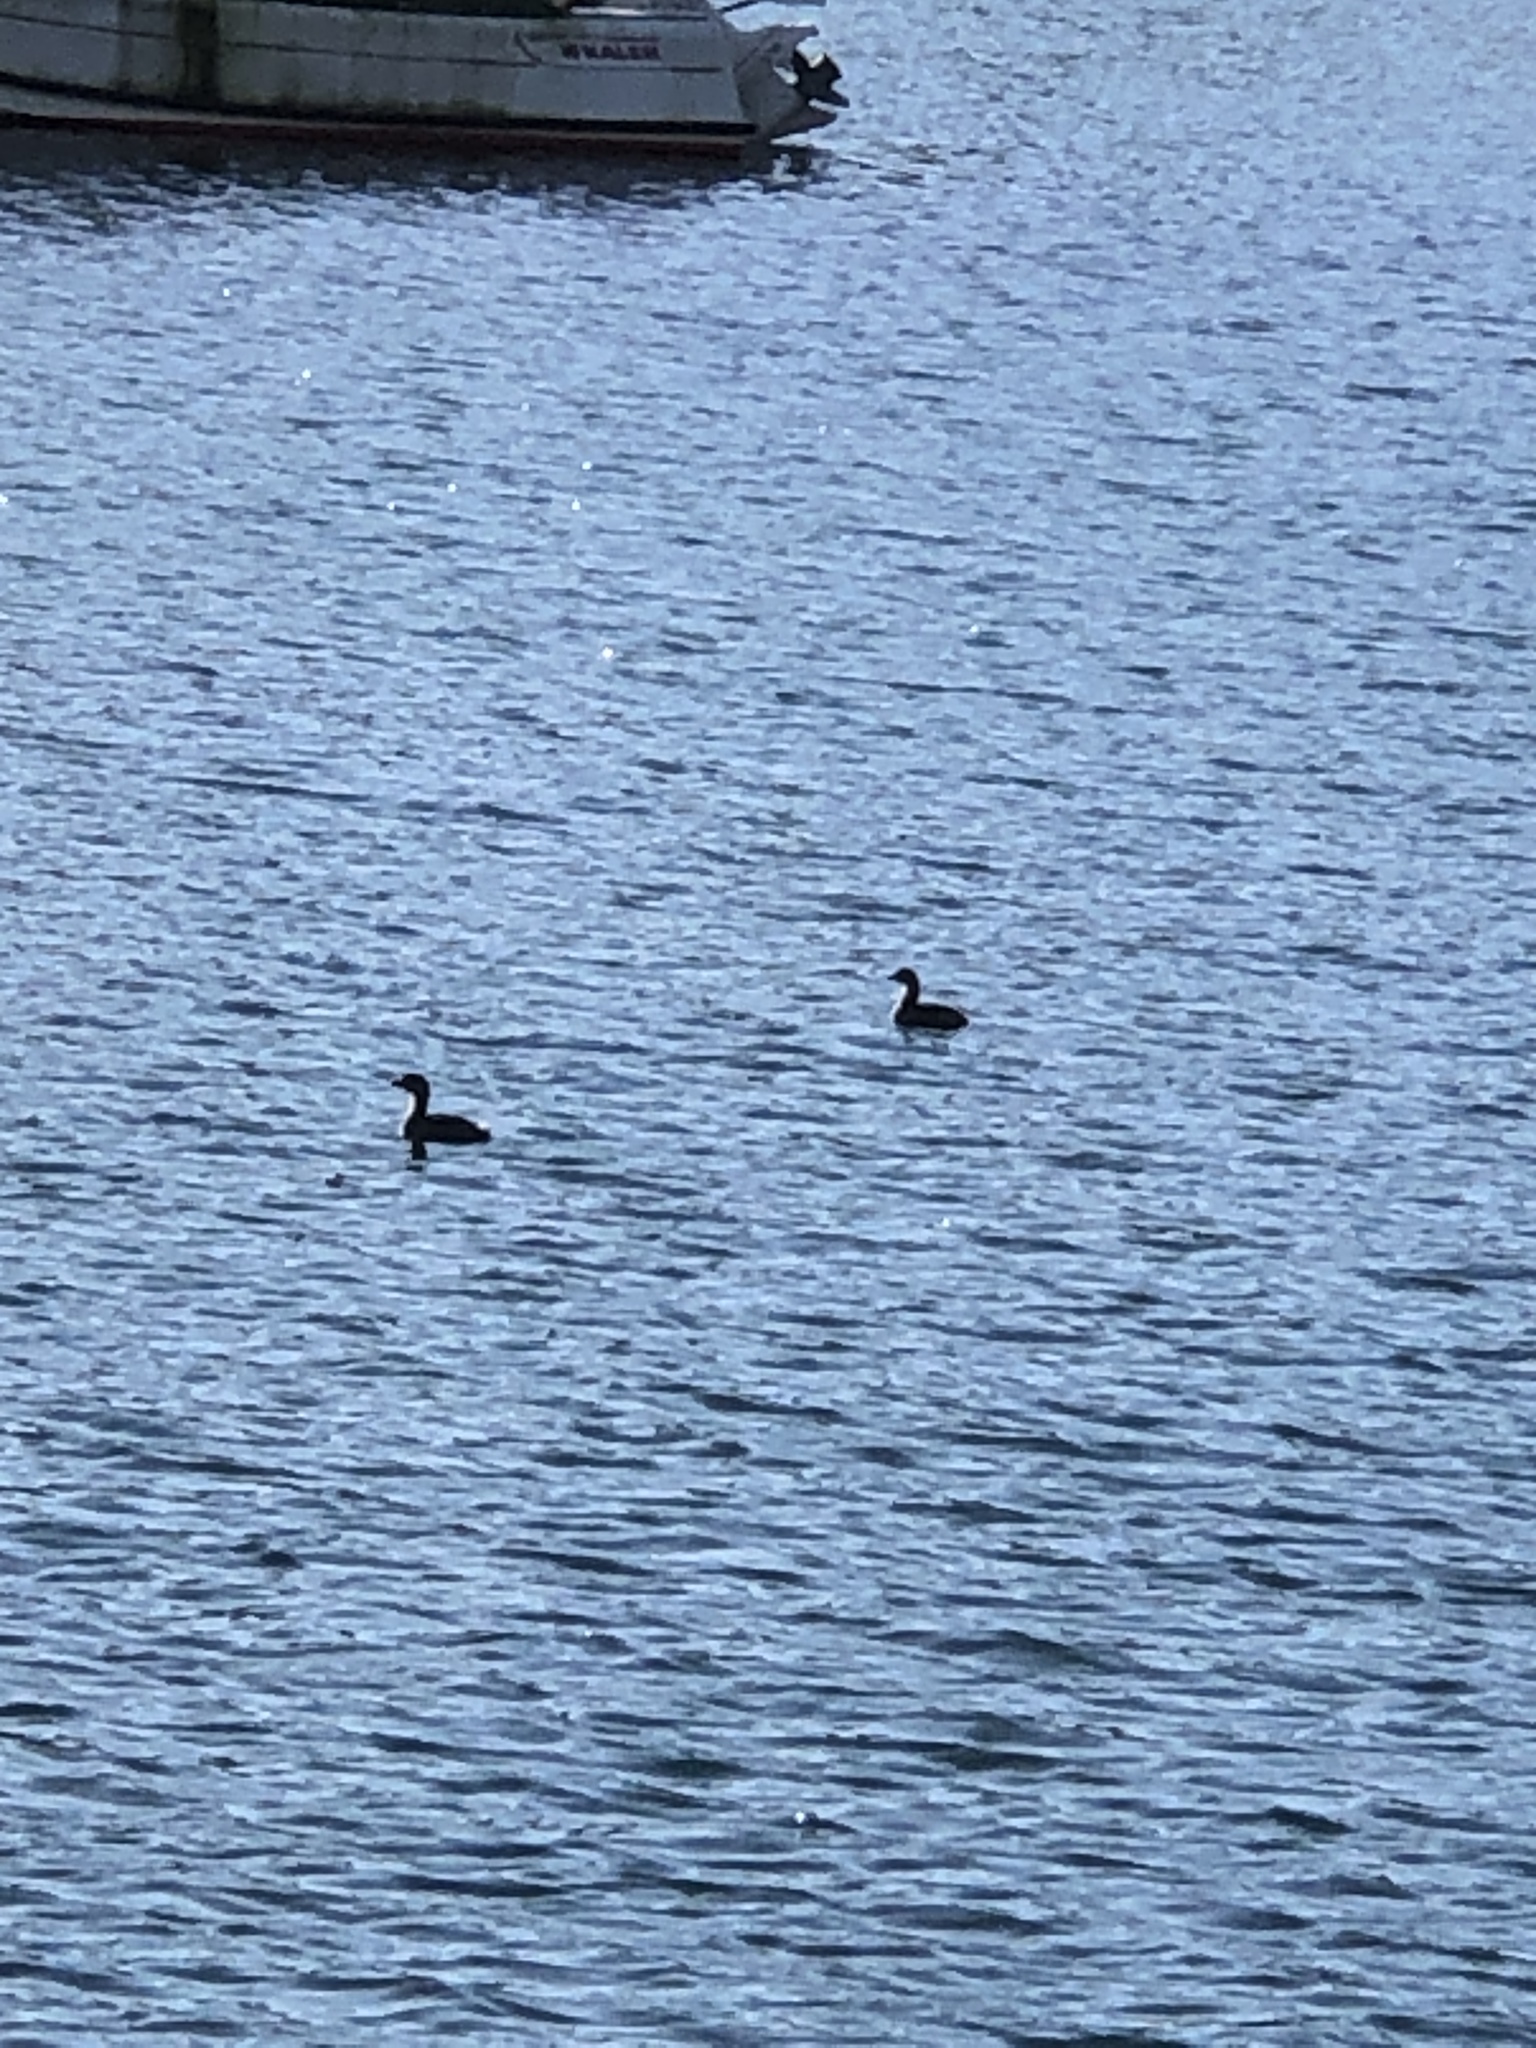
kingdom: Animalia
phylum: Chordata
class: Aves
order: Podicipediformes
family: Podicipedidae
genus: Podilymbus
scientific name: Podilymbus podiceps
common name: Pied-billed grebe
